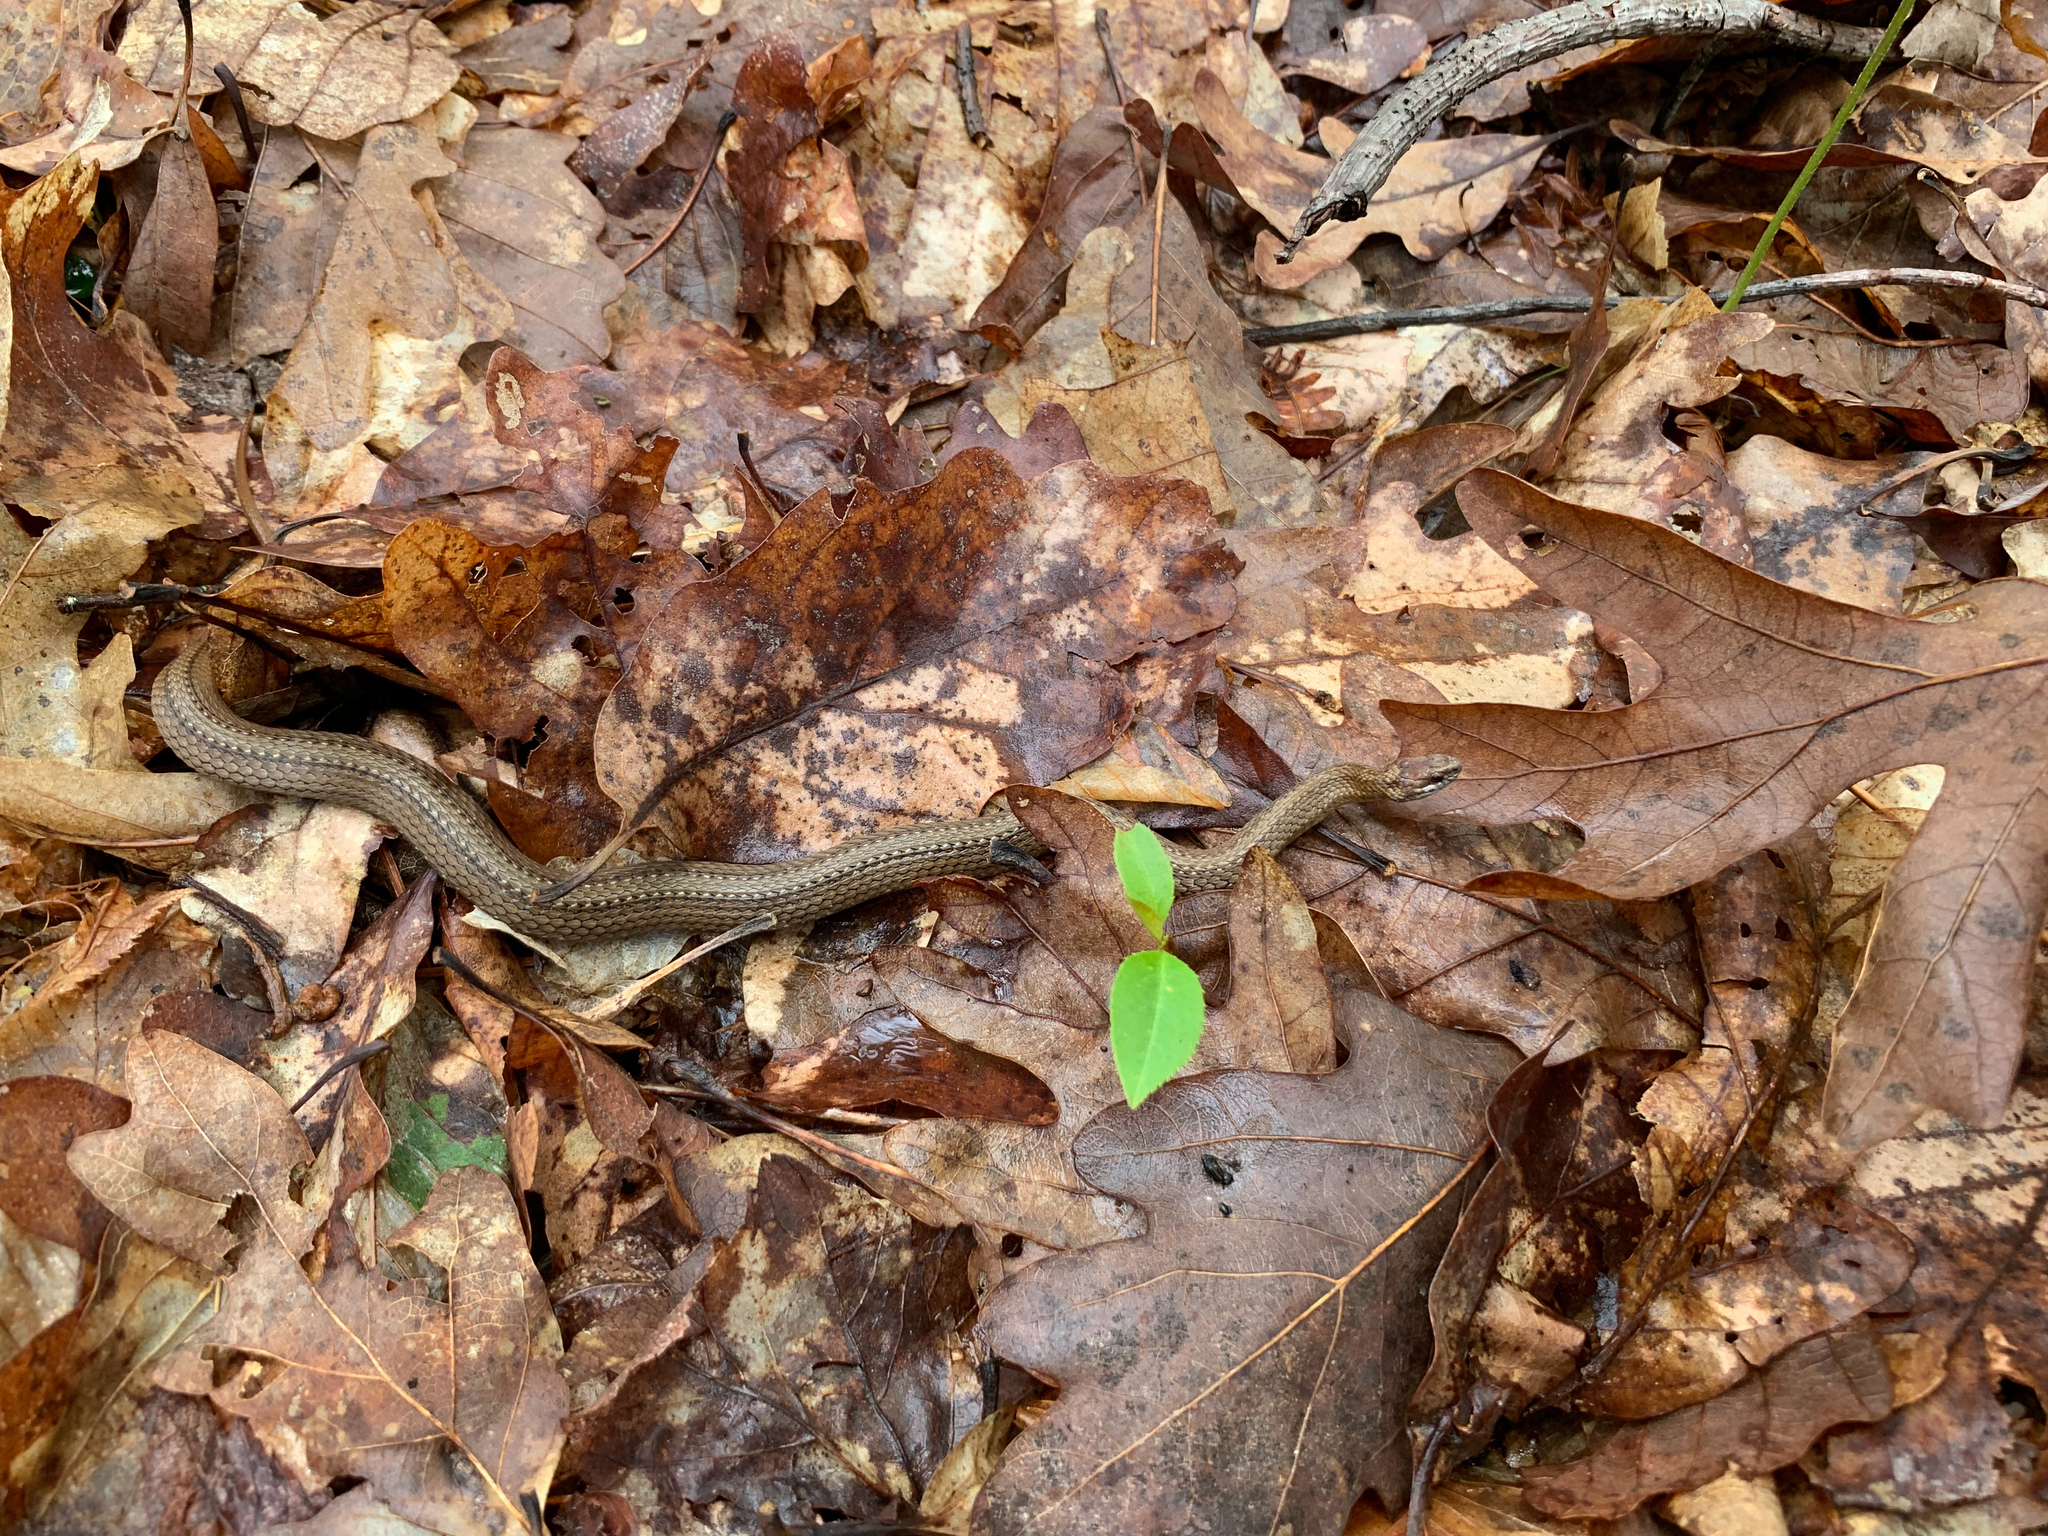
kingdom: Animalia
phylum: Chordata
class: Squamata
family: Colubridae
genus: Storeria
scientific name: Storeria occipitomaculata
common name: Redbelly snake
